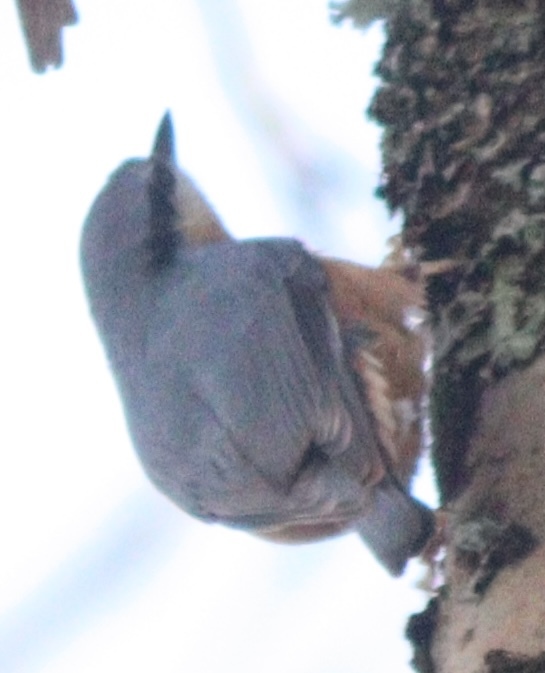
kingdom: Animalia
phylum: Chordata
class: Aves
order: Passeriformes
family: Sittidae
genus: Sitta
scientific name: Sitta europaea
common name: Eurasian nuthatch
